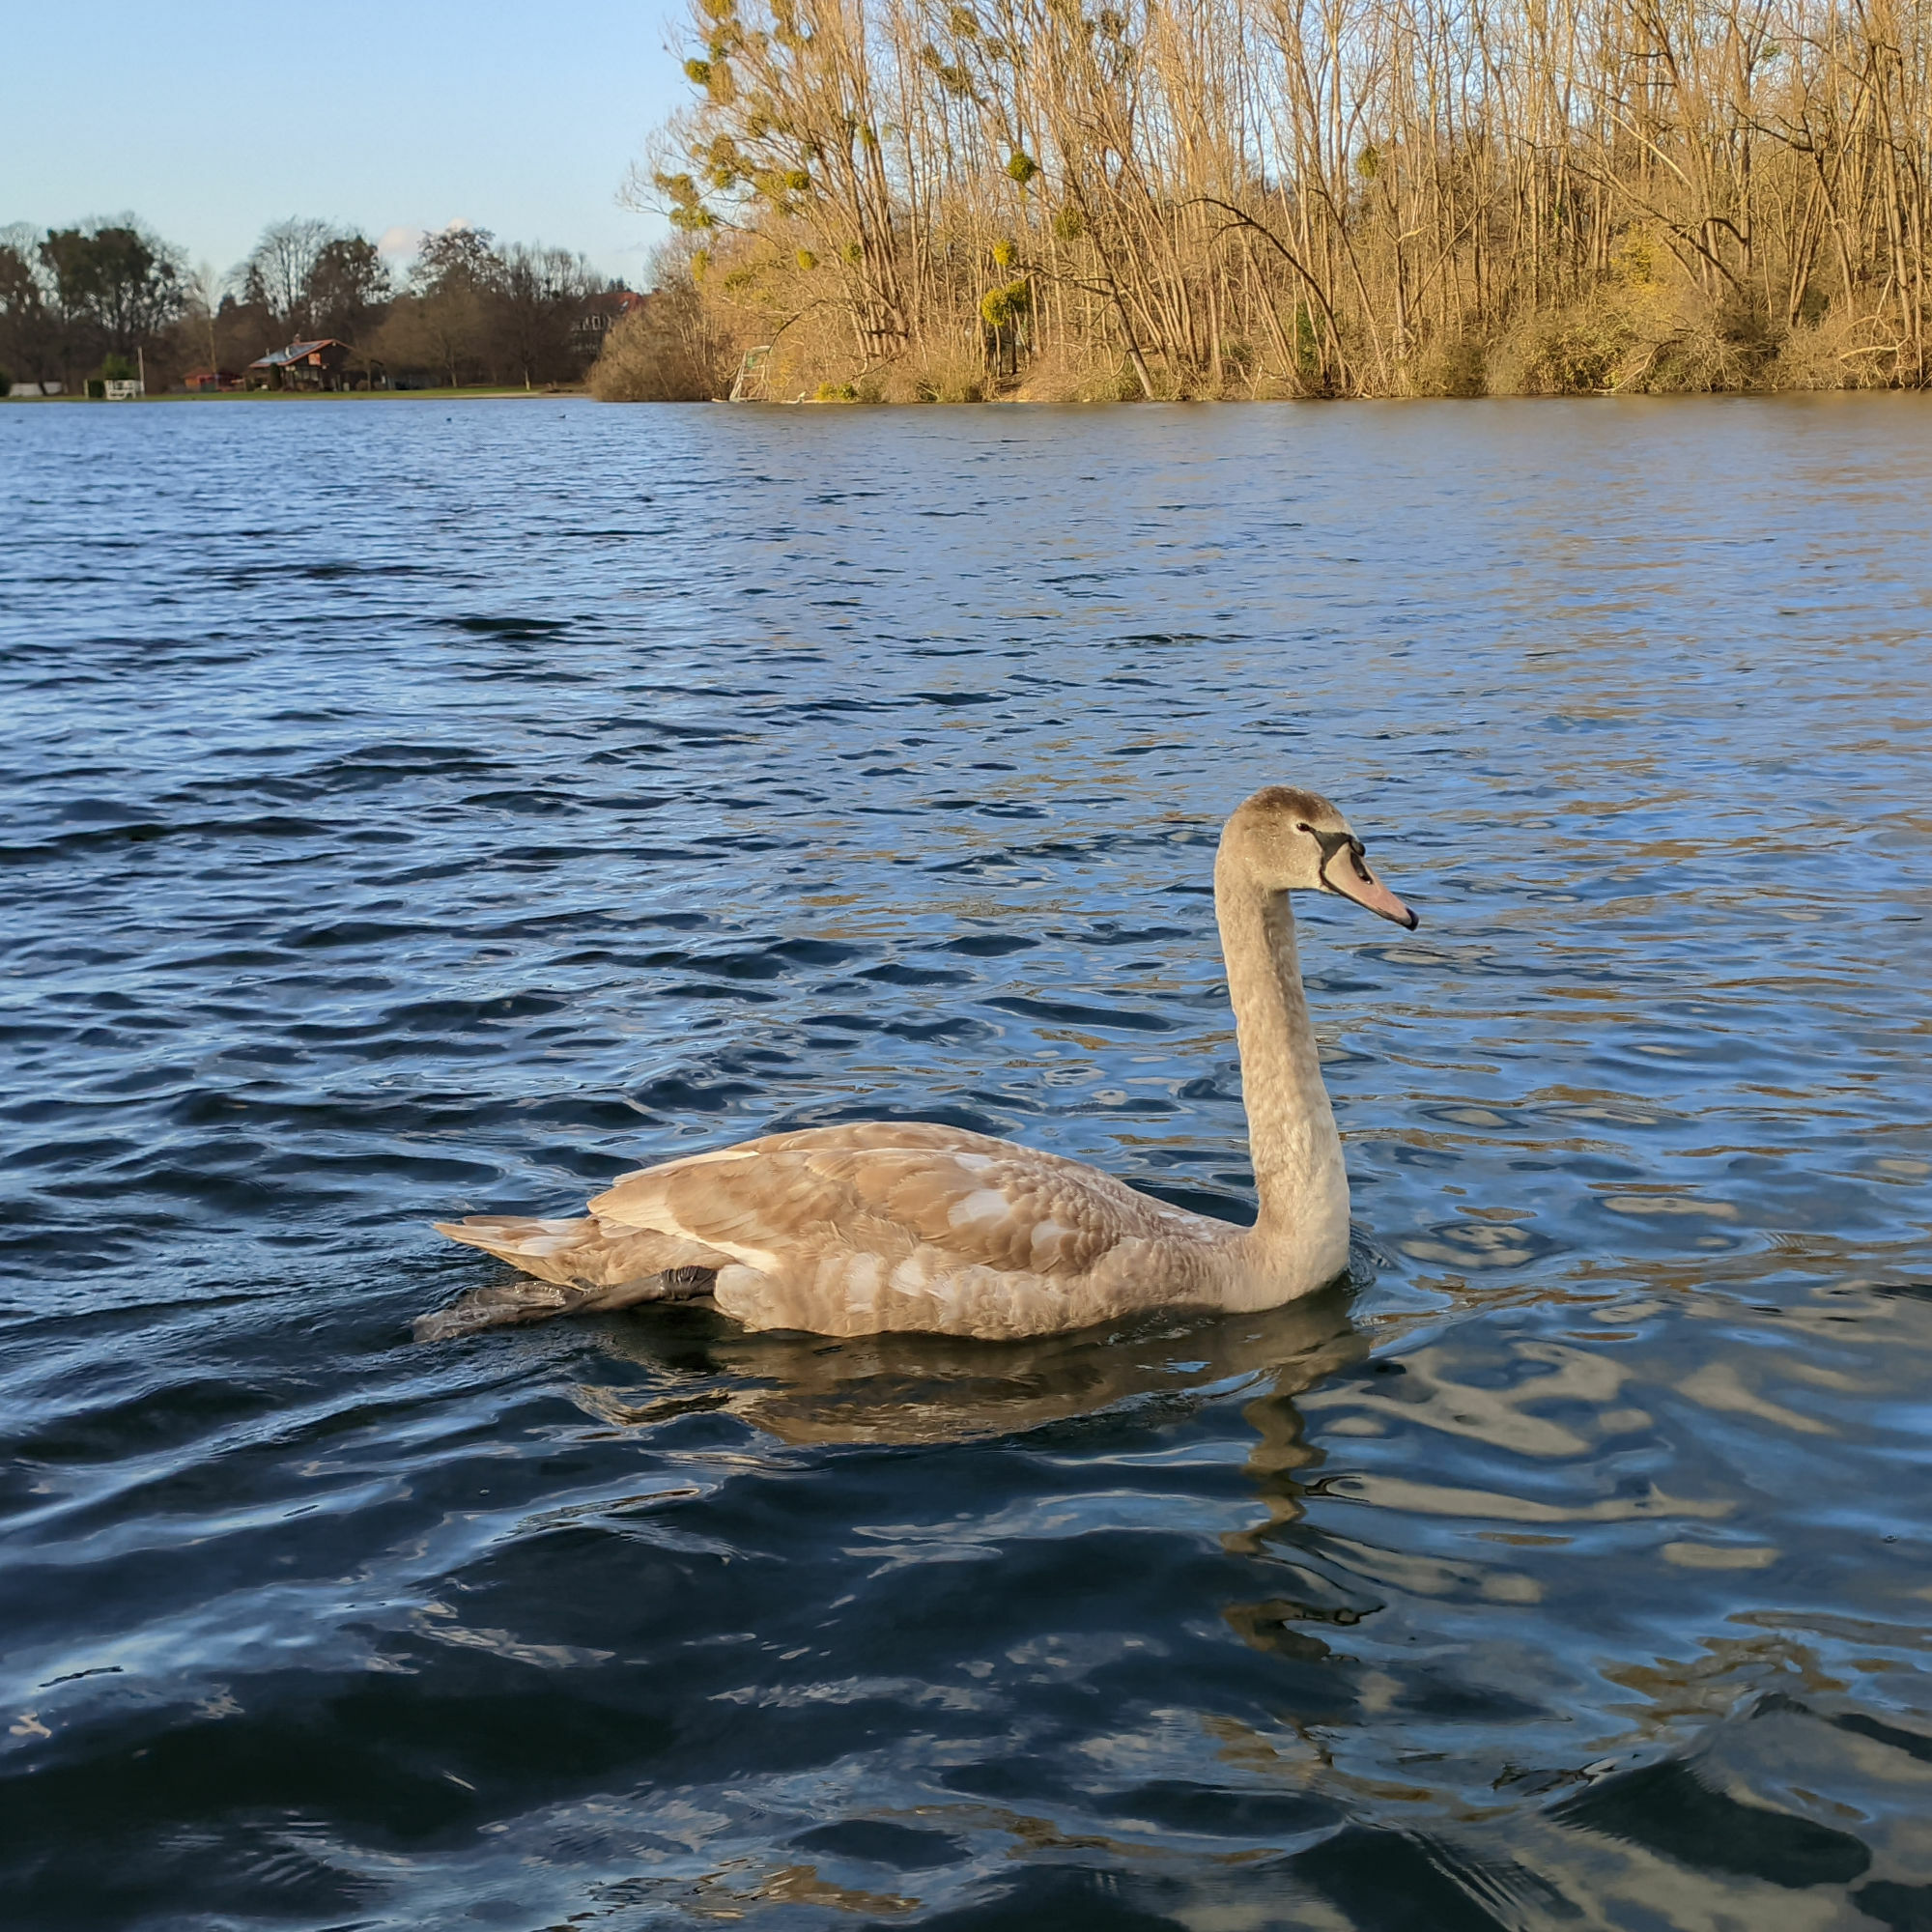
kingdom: Animalia
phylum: Chordata
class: Aves
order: Anseriformes
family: Anatidae
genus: Cygnus
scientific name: Cygnus olor
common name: Mute swan
